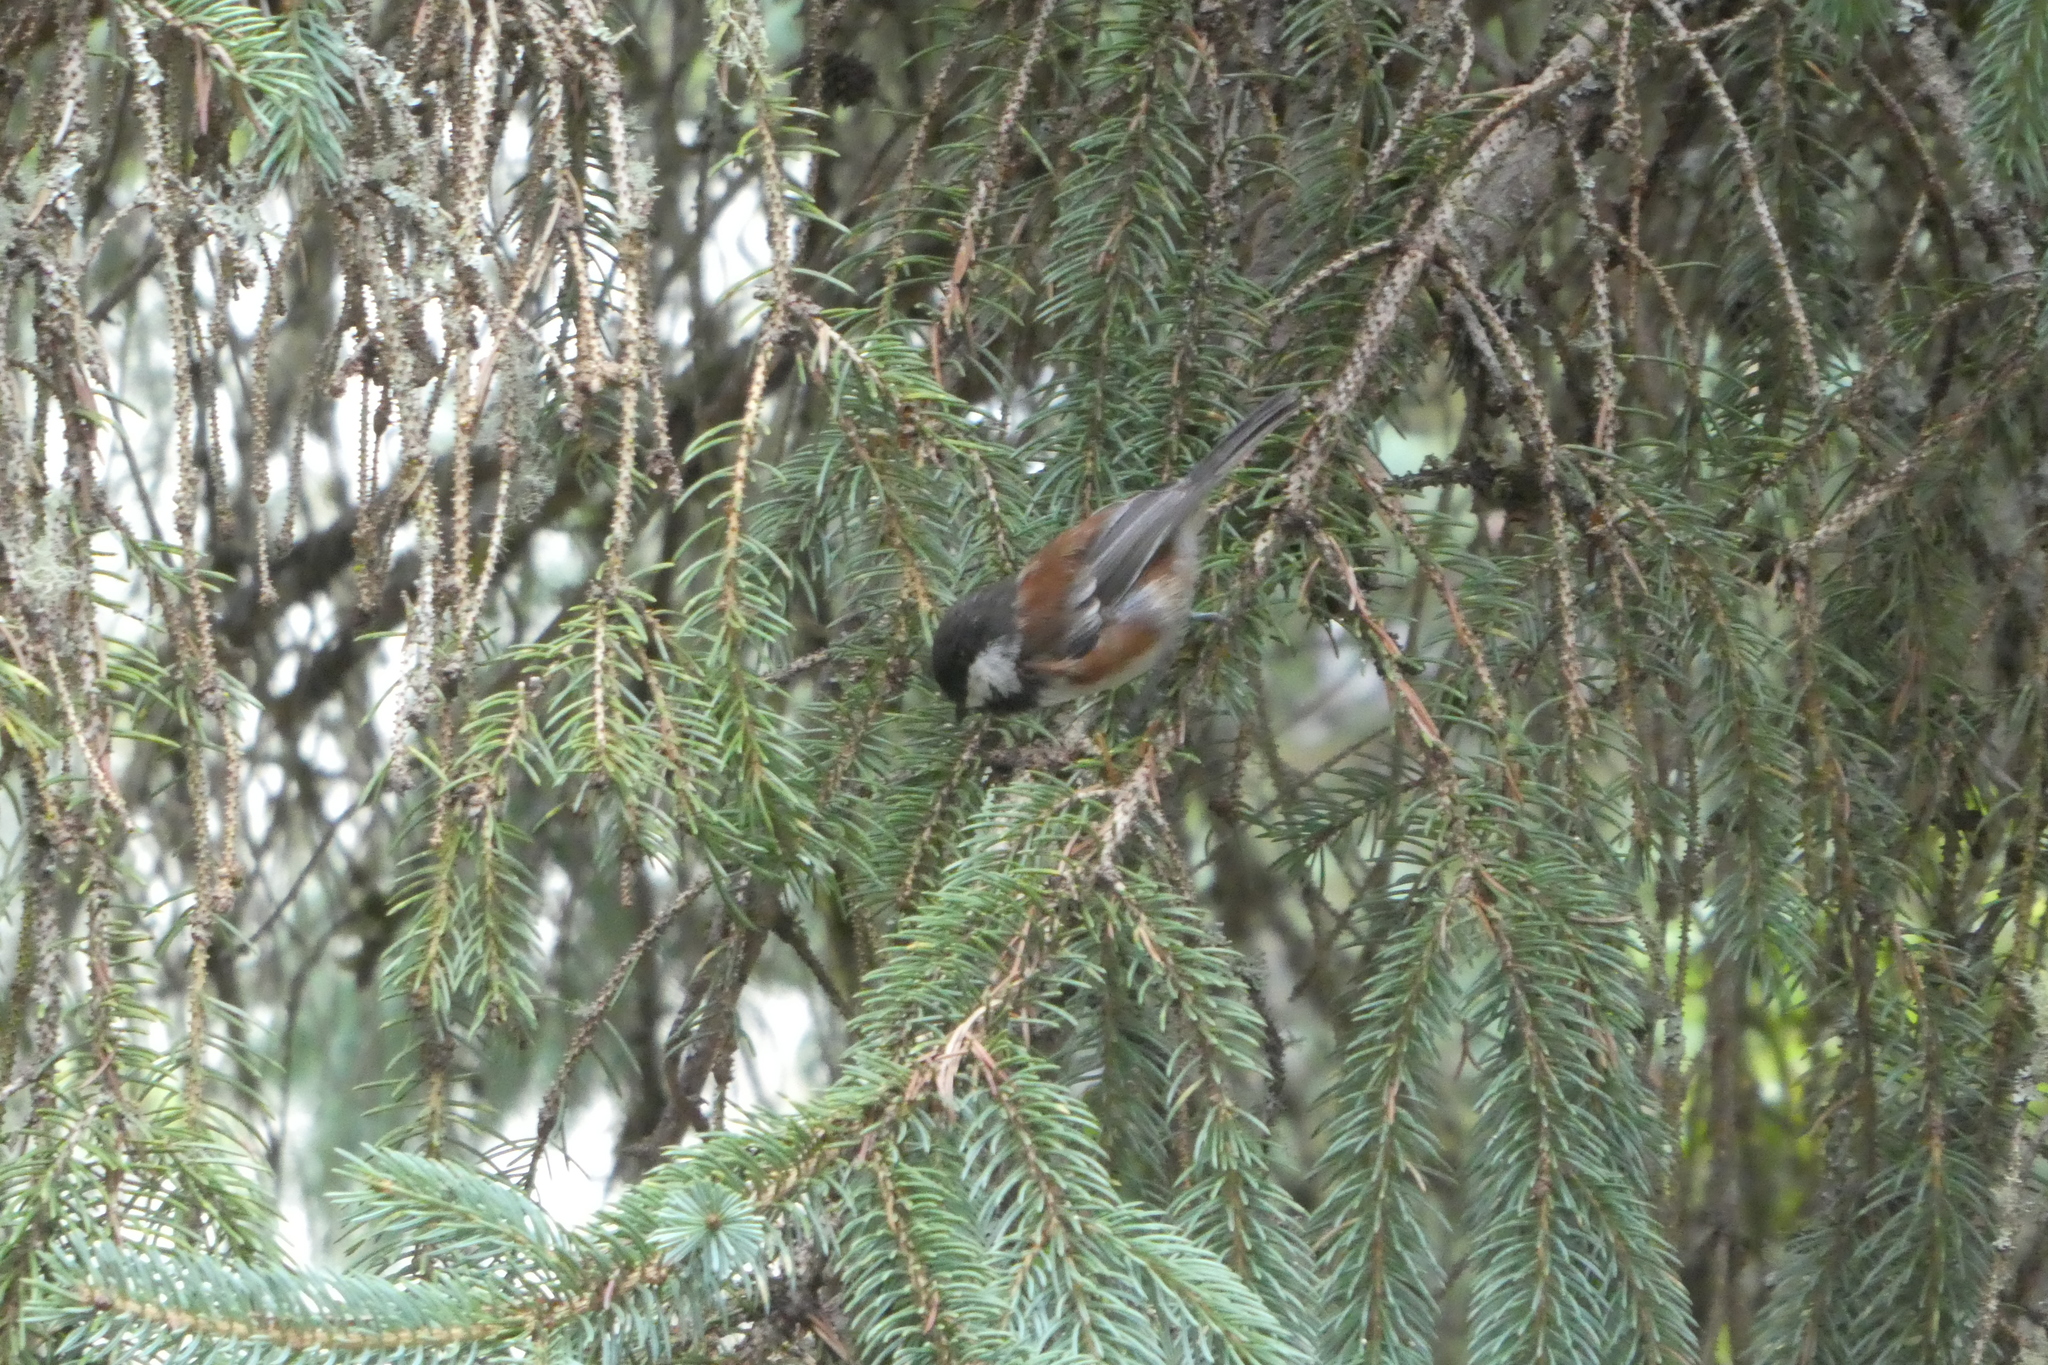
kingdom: Animalia
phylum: Chordata
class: Aves
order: Passeriformes
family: Paridae
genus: Poecile
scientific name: Poecile rufescens
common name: Chestnut-backed chickadee
